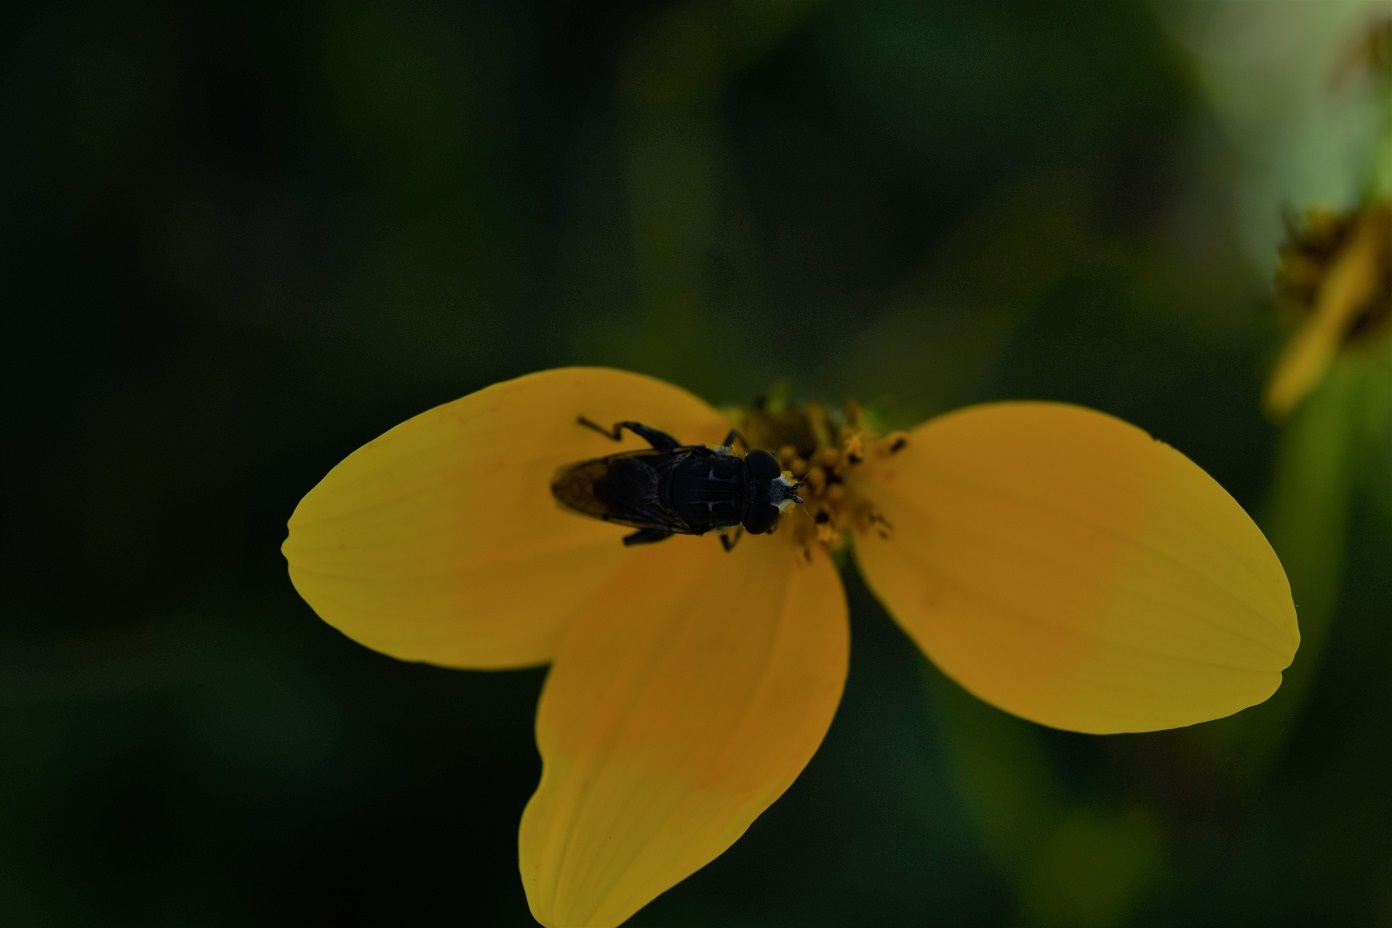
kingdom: Animalia
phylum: Arthropoda
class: Insecta
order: Diptera
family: Syrphidae
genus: Asemosyrphus
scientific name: Asemosyrphus
